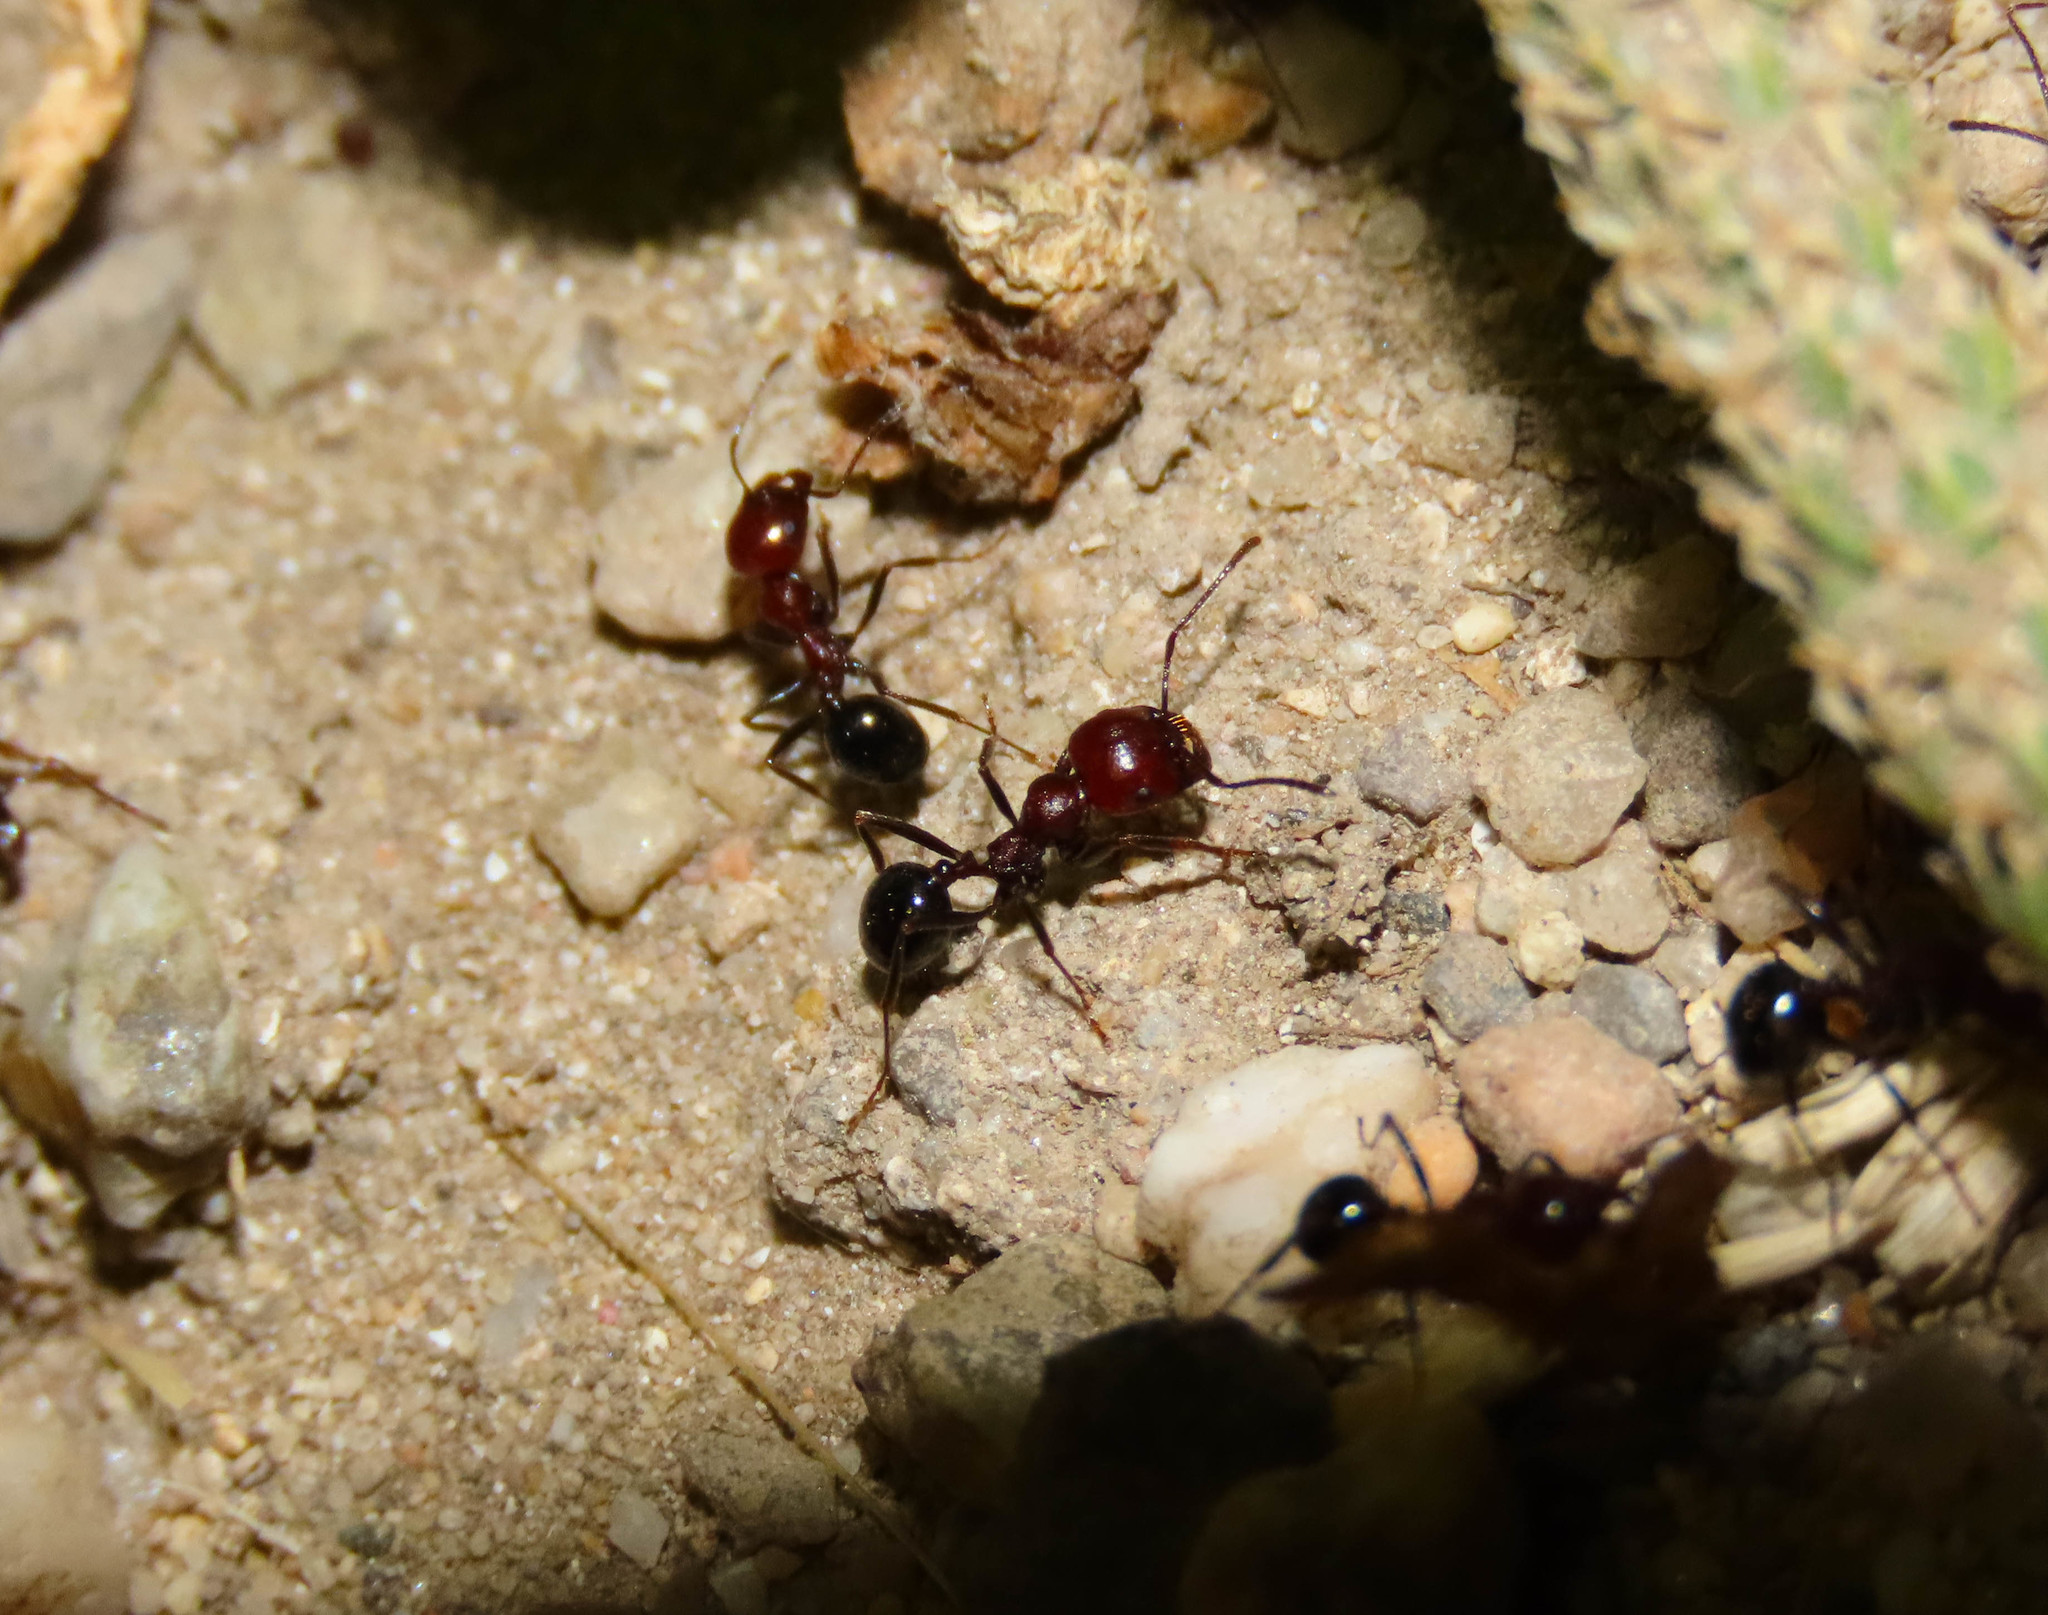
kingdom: Animalia
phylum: Arthropoda
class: Insecta
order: Hymenoptera
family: Formicidae
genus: Messor
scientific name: Messor minor
